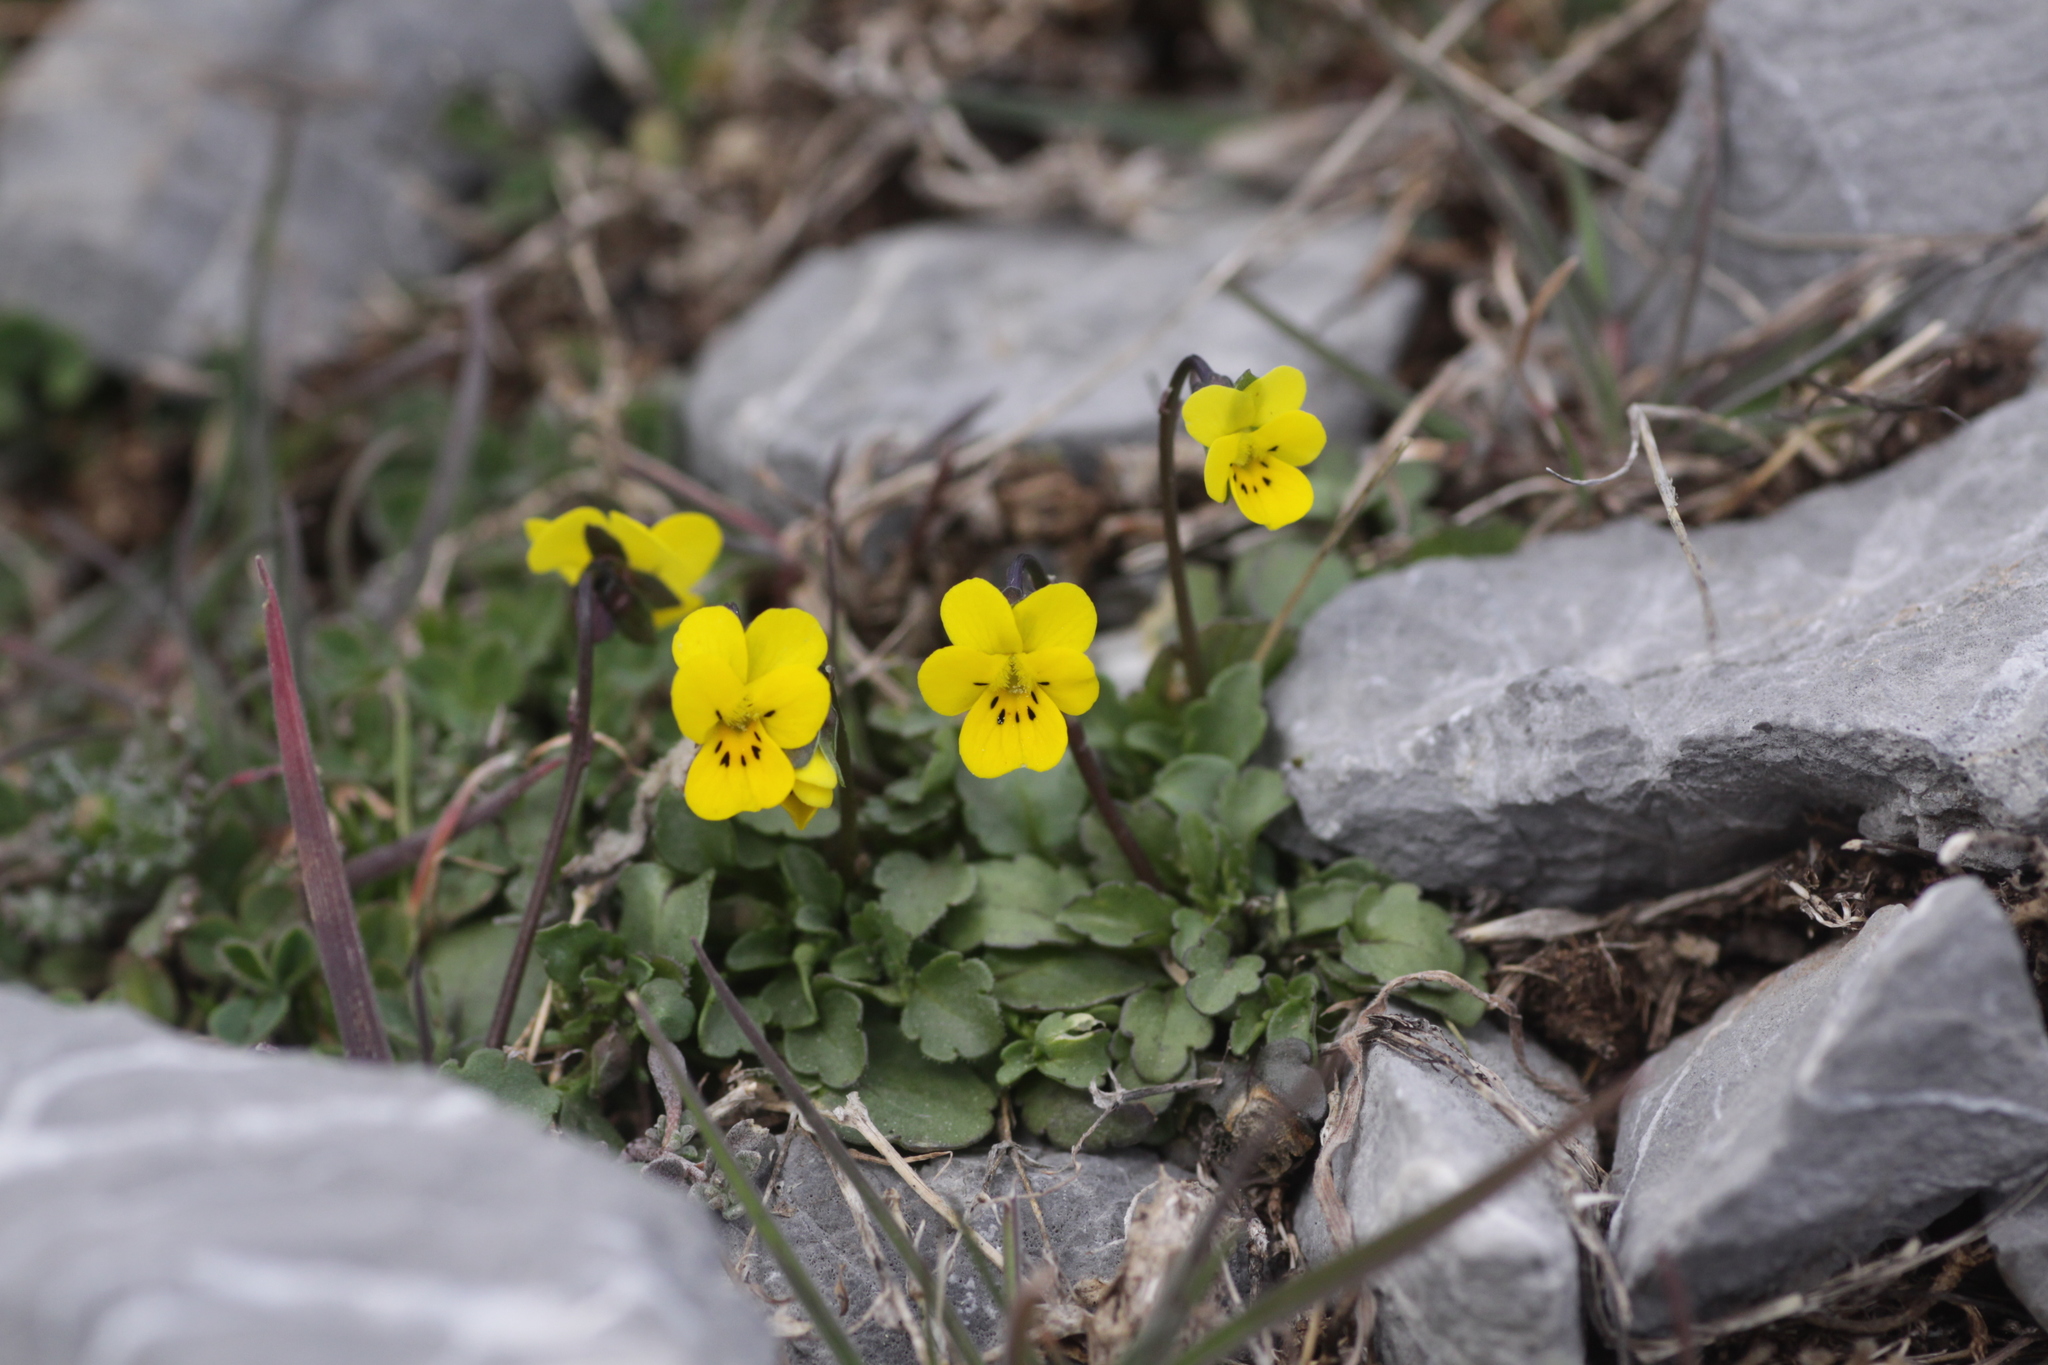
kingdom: Plantae
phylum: Tracheophyta
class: Magnoliopsida
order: Malpighiales
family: Violaceae
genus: Viola
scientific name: Viola demetria
